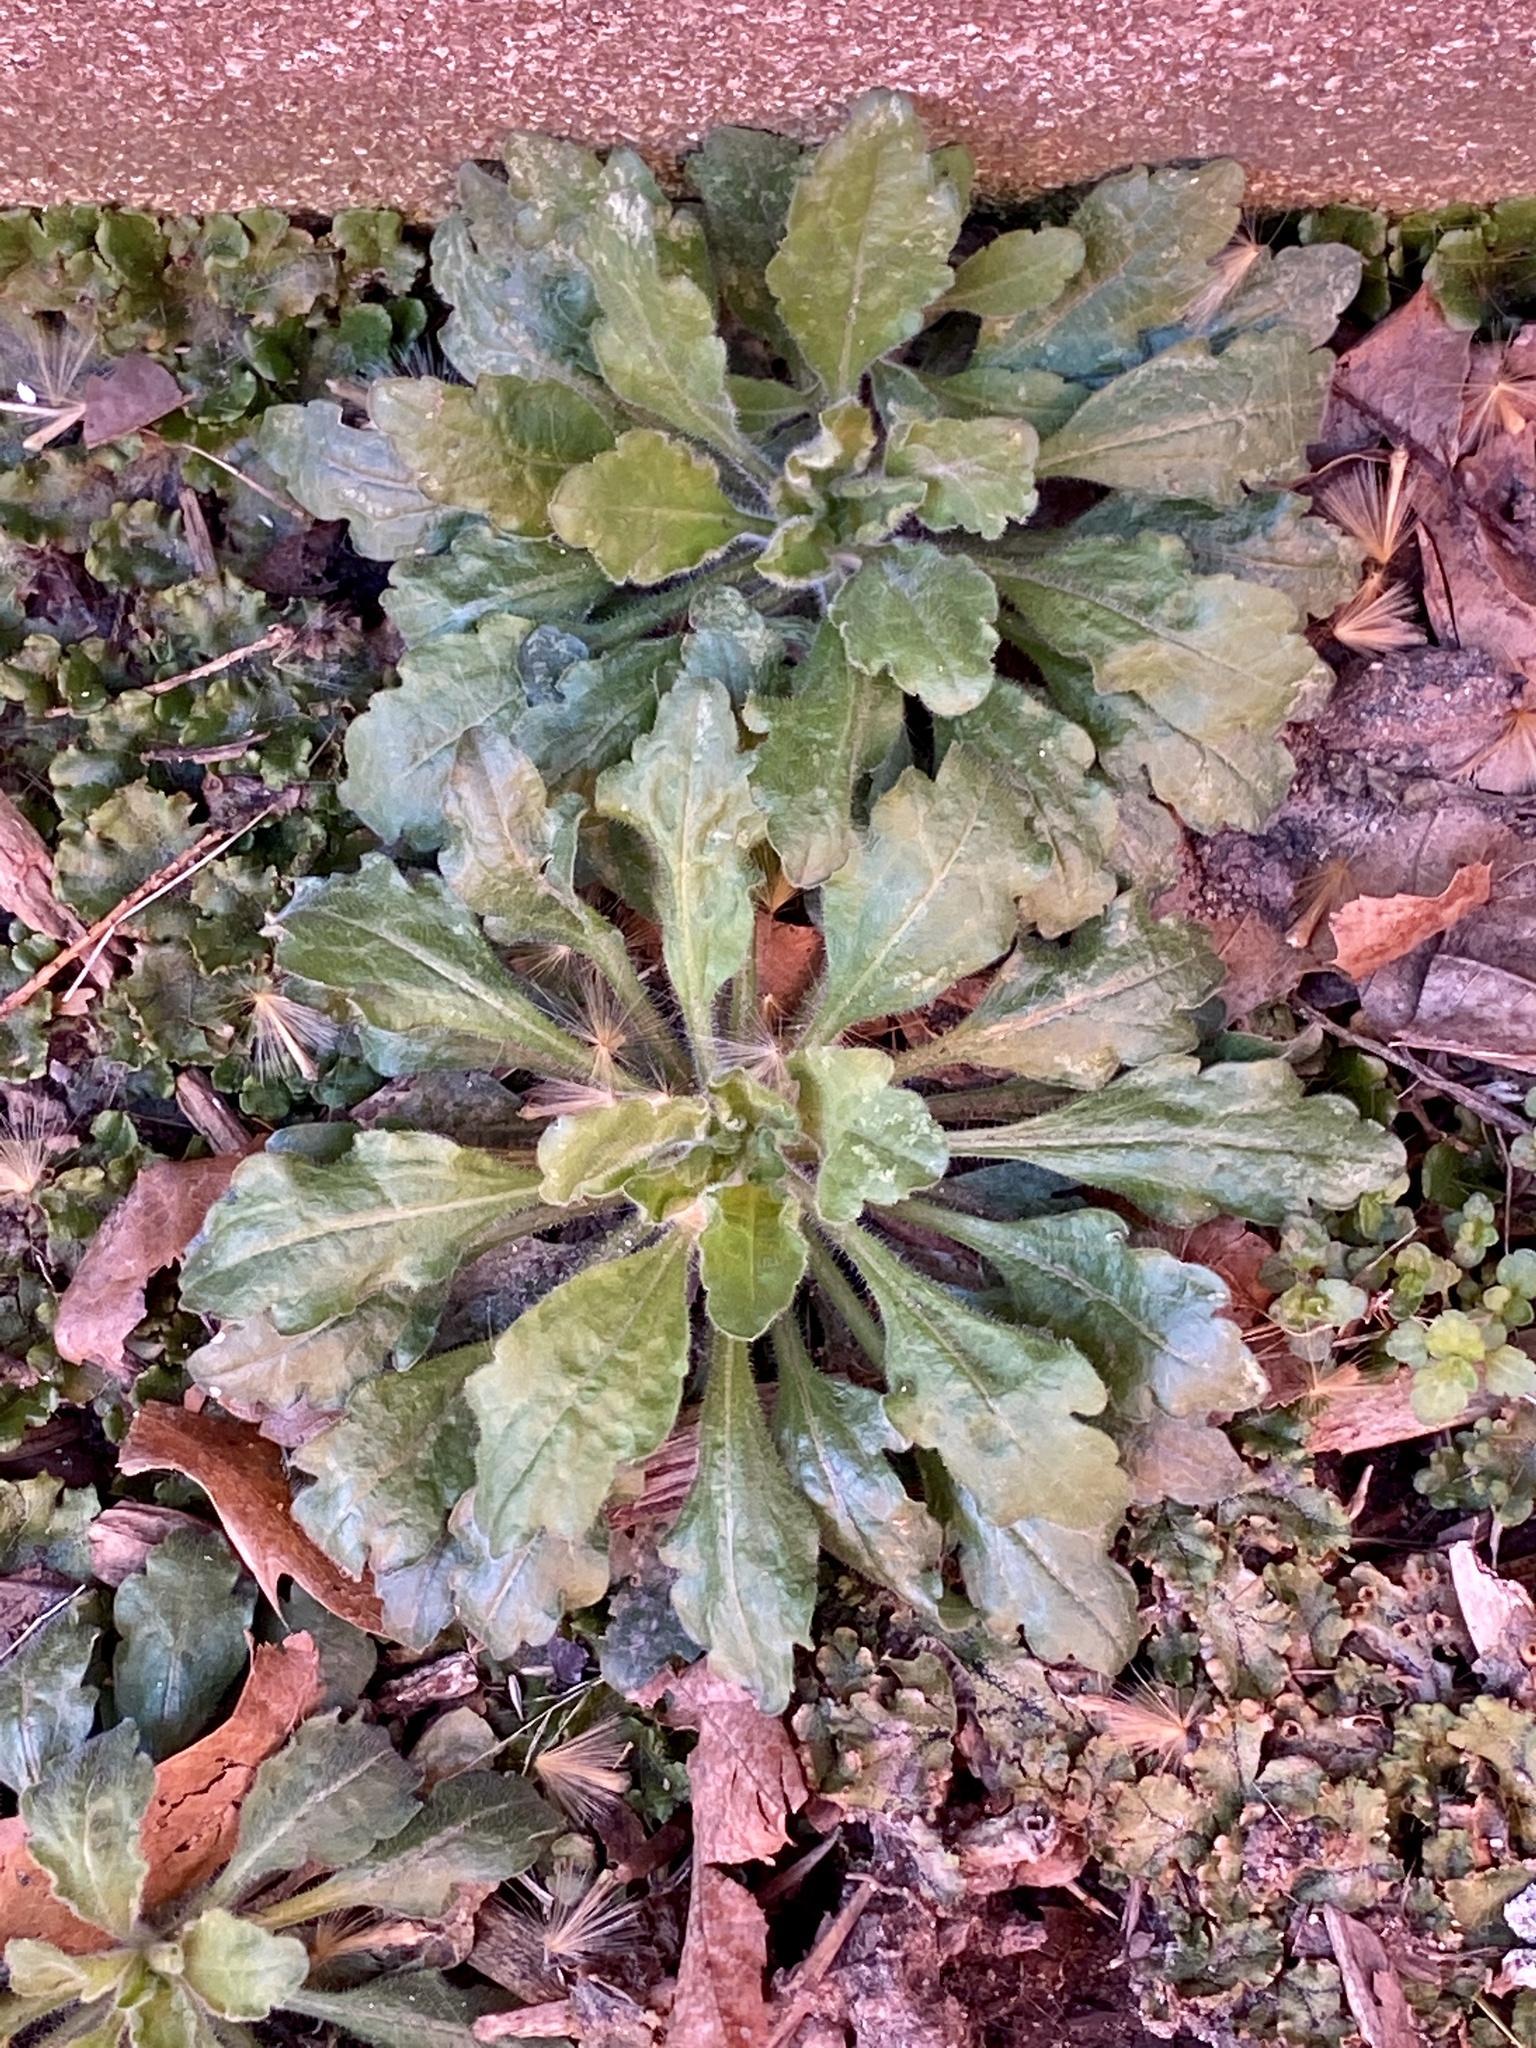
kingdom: Plantae
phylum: Tracheophyta
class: Magnoliopsida
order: Asterales
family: Asteraceae
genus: Erigeron
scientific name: Erigeron canadensis
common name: Canadian fleabane
